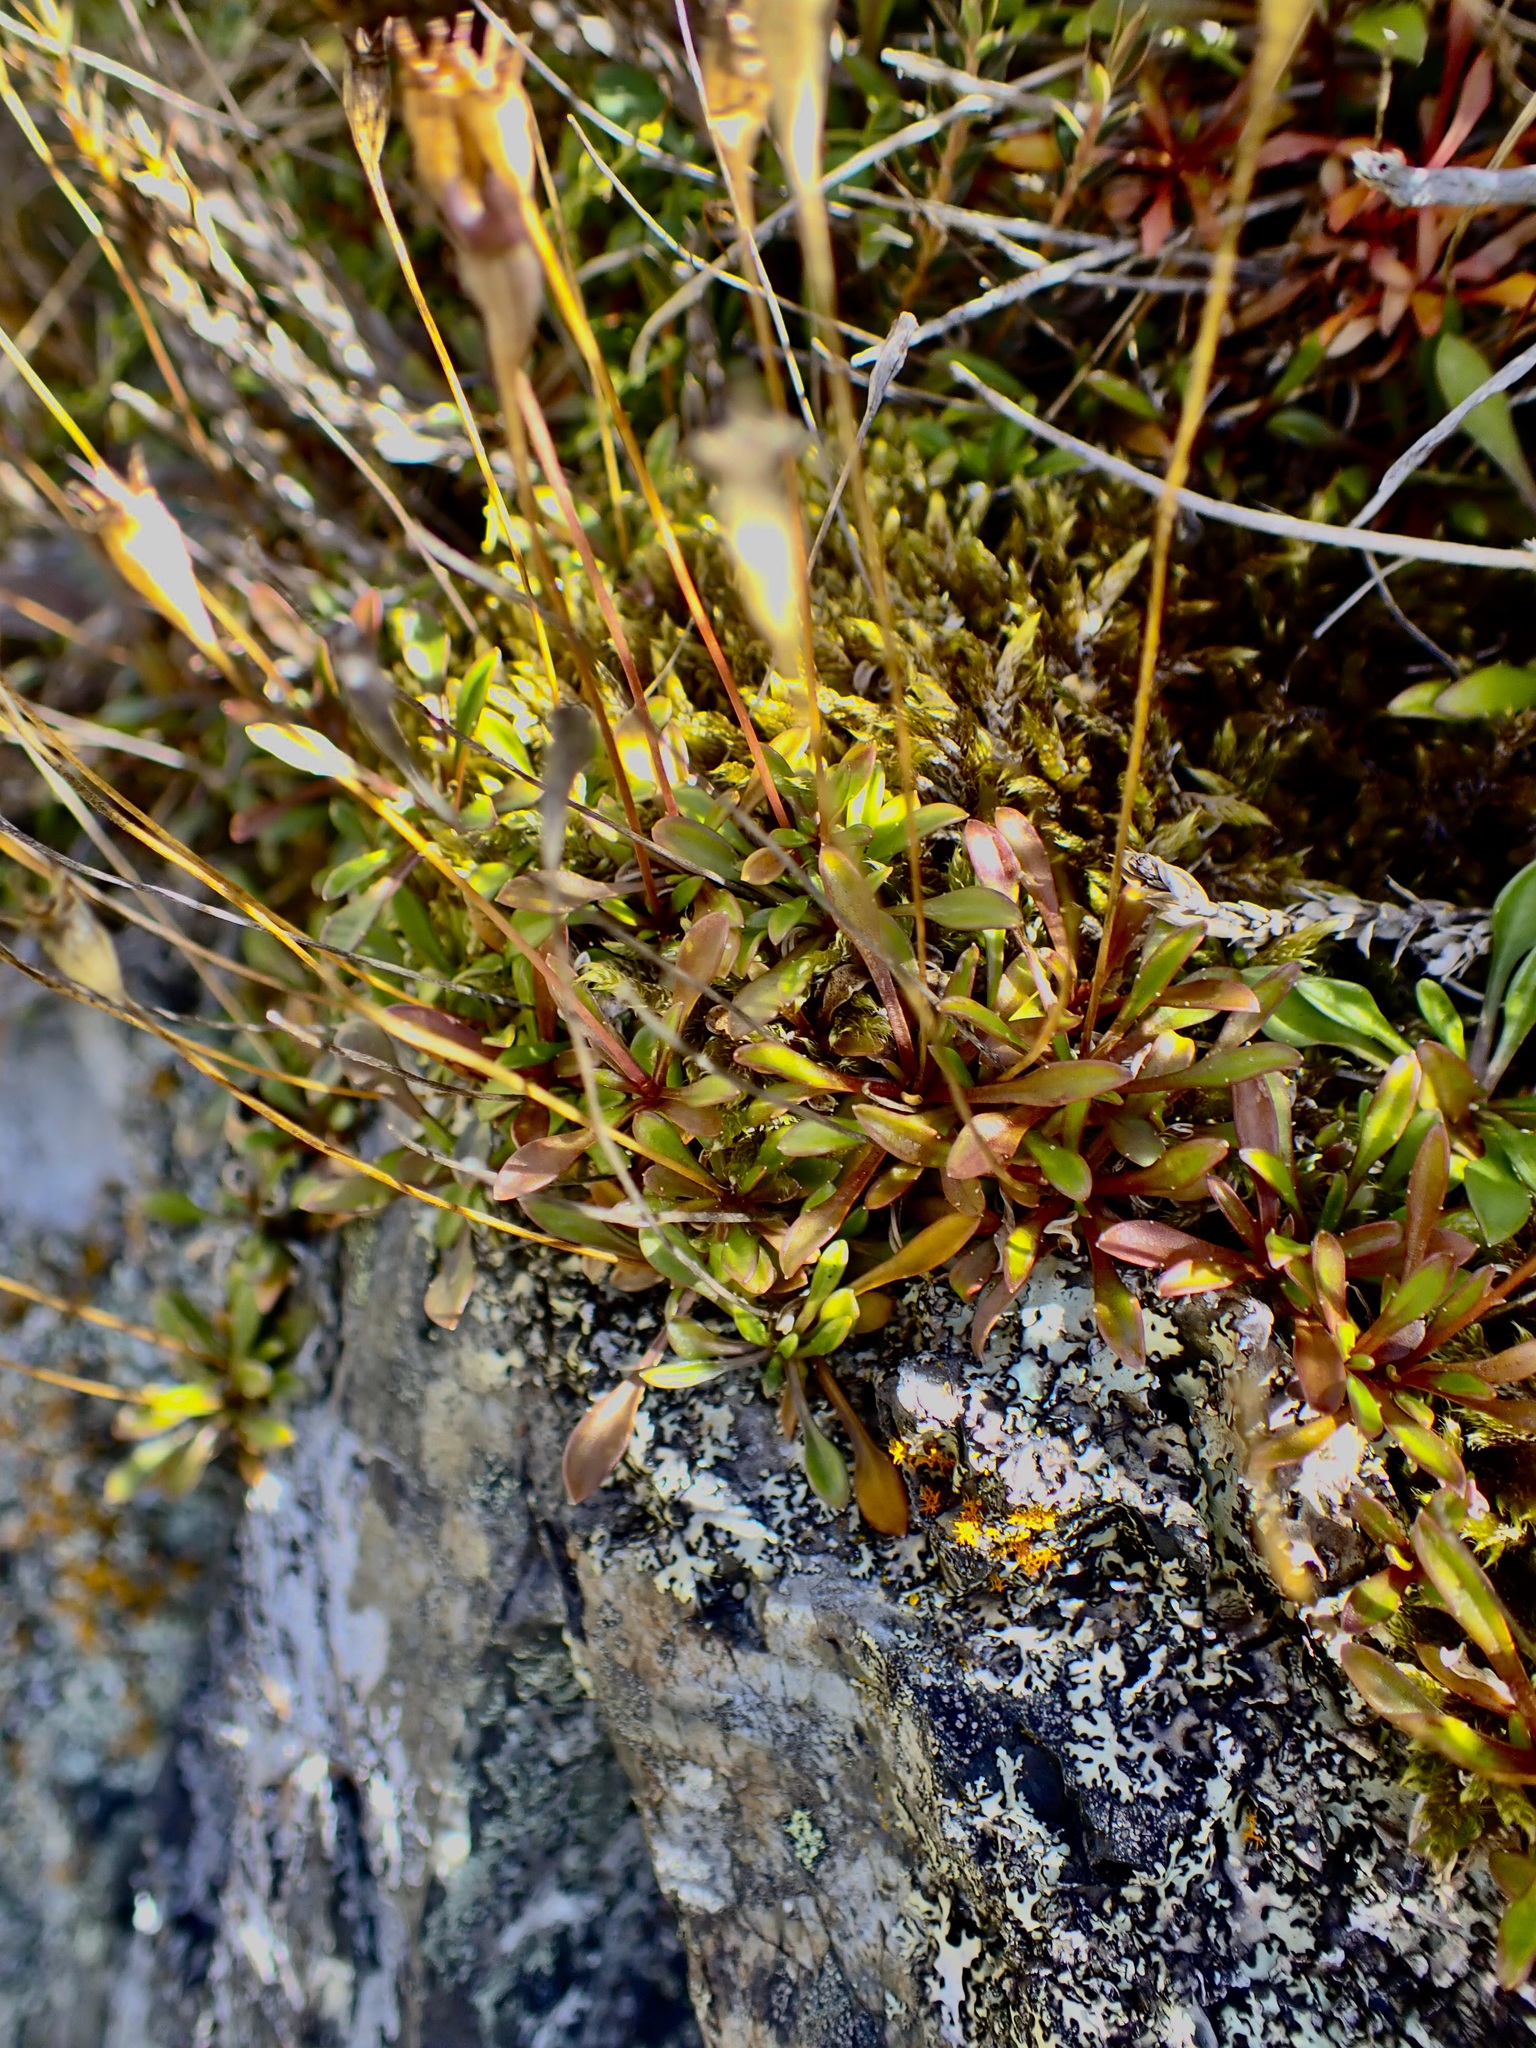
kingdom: Plantae
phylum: Tracheophyta
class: Magnoliopsida
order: Asterales
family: Campanulaceae
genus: Wahlenbergia
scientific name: Wahlenbergia albomarginata
